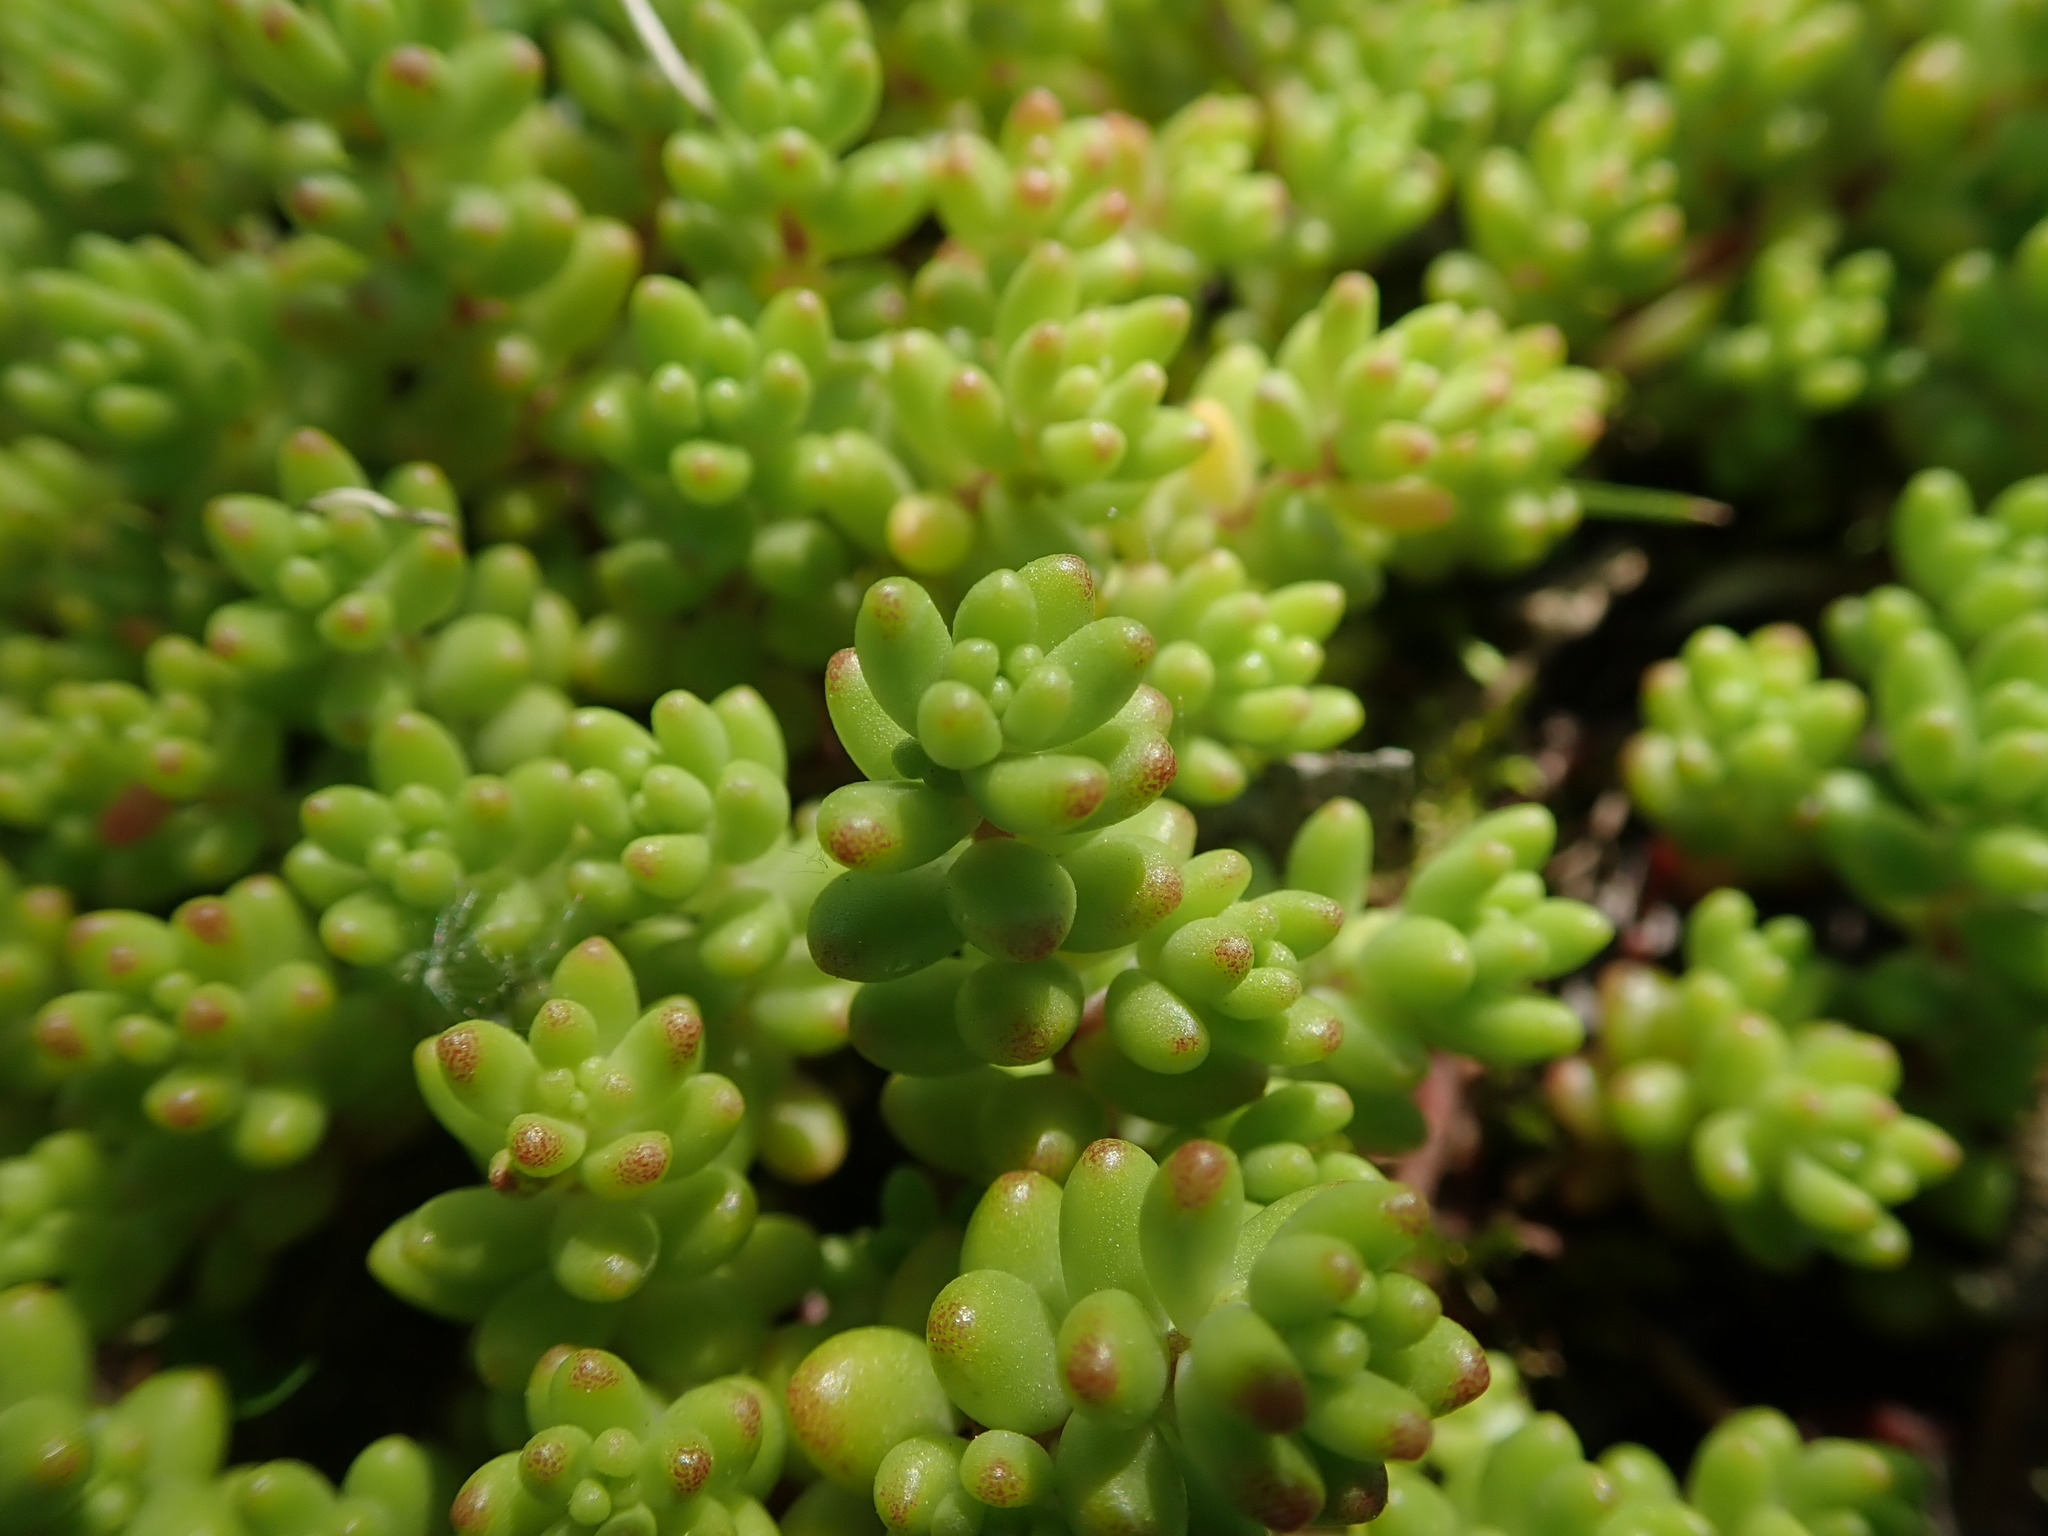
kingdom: Plantae
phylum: Tracheophyta
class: Magnoliopsida
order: Saxifragales
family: Crassulaceae
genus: Sedum
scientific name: Sedum album
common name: White stonecrop
